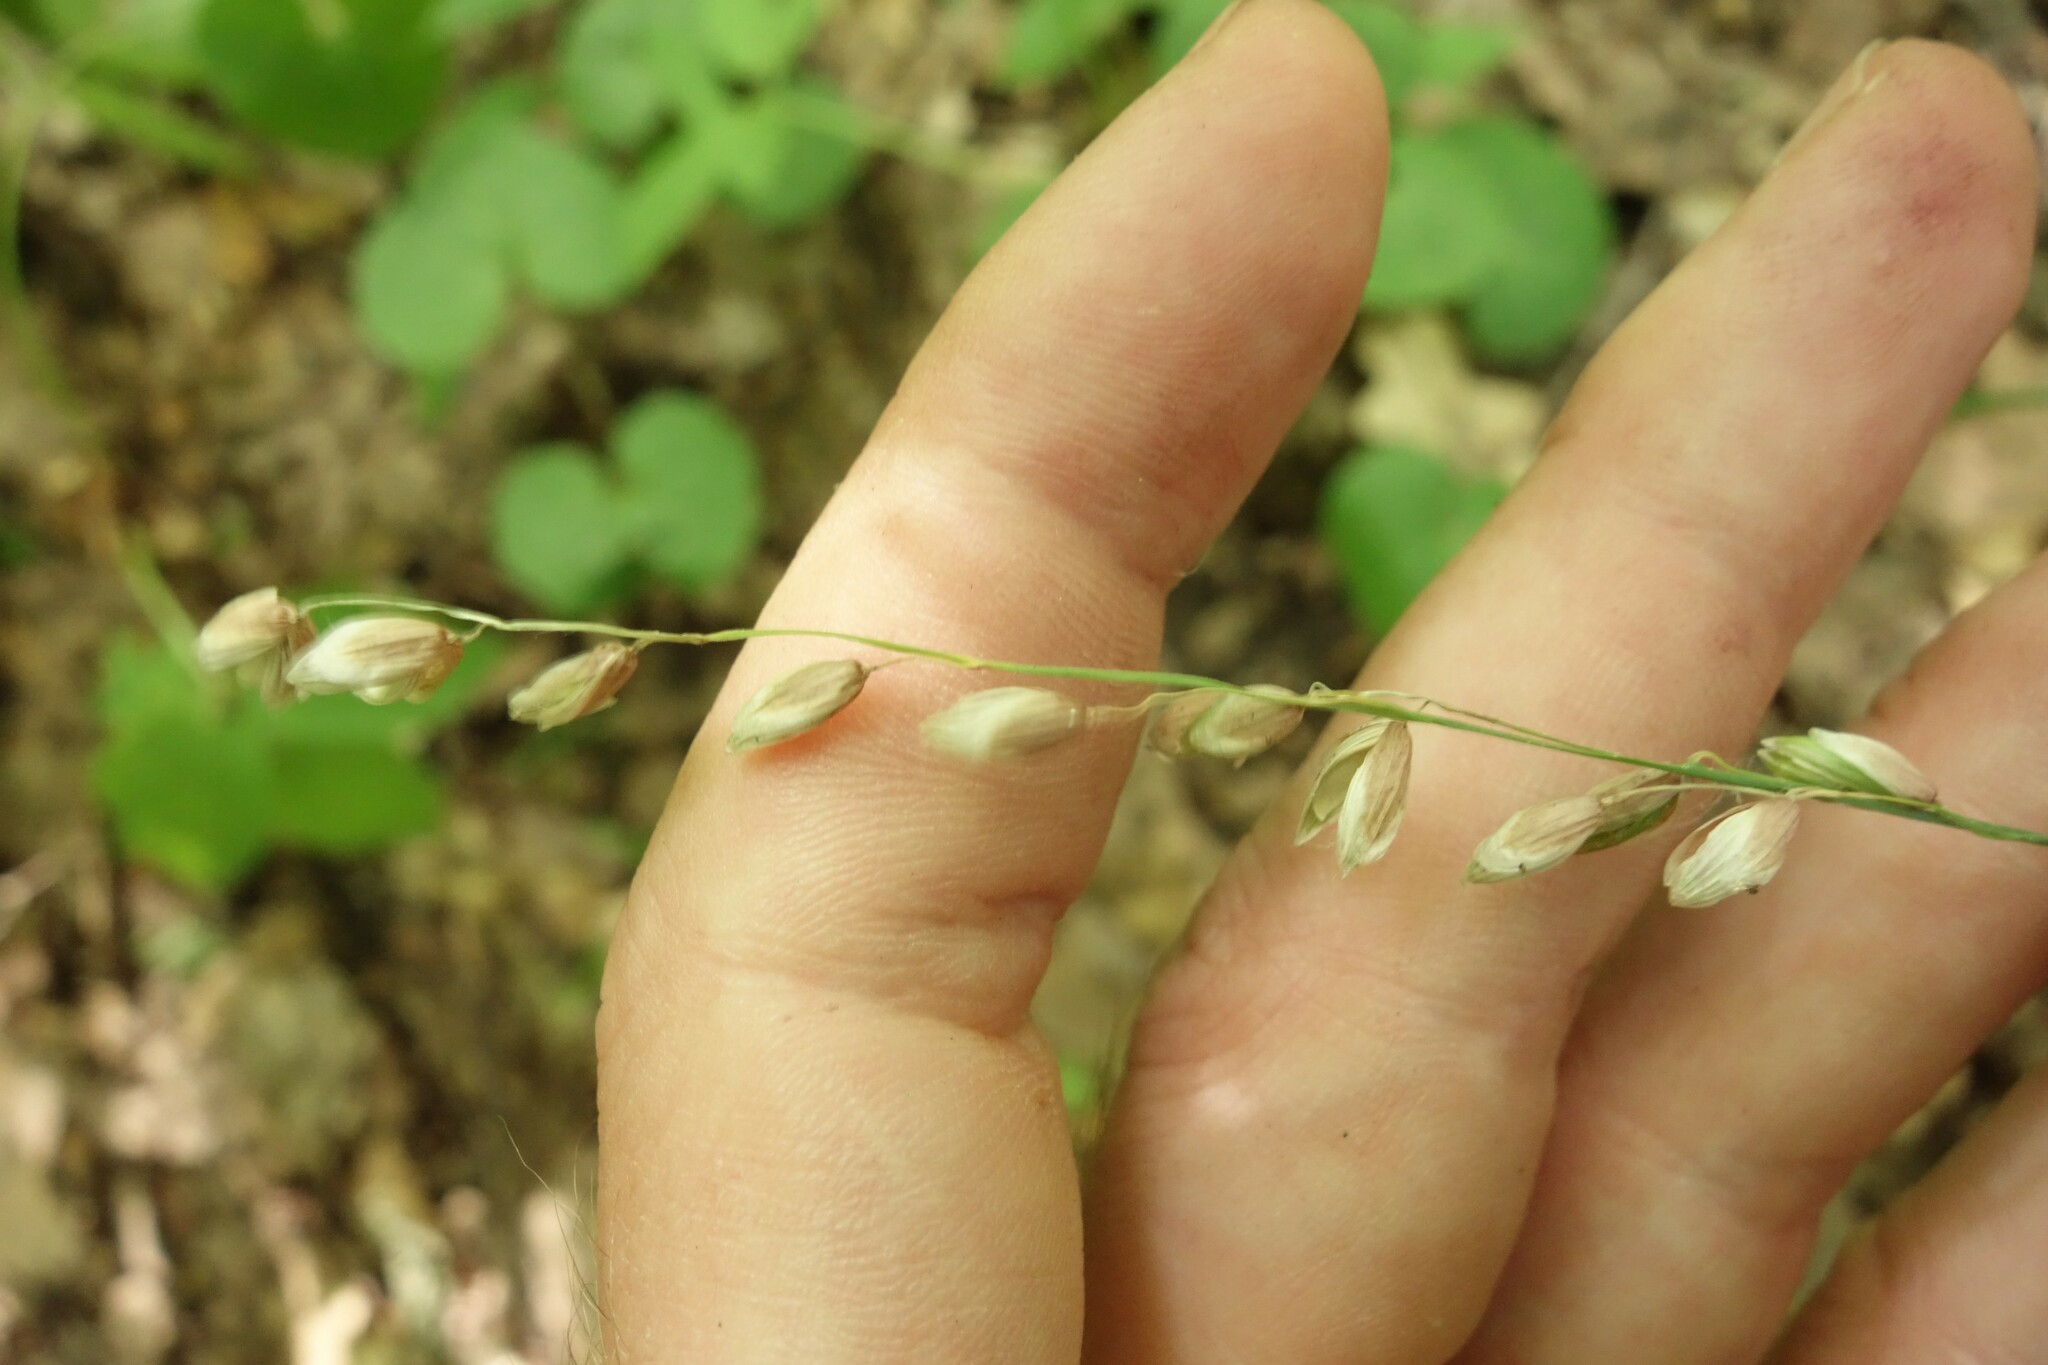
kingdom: Plantae
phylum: Tracheophyta
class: Liliopsida
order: Poales
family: Poaceae
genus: Melica
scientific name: Melica nutans
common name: Mountain melick
